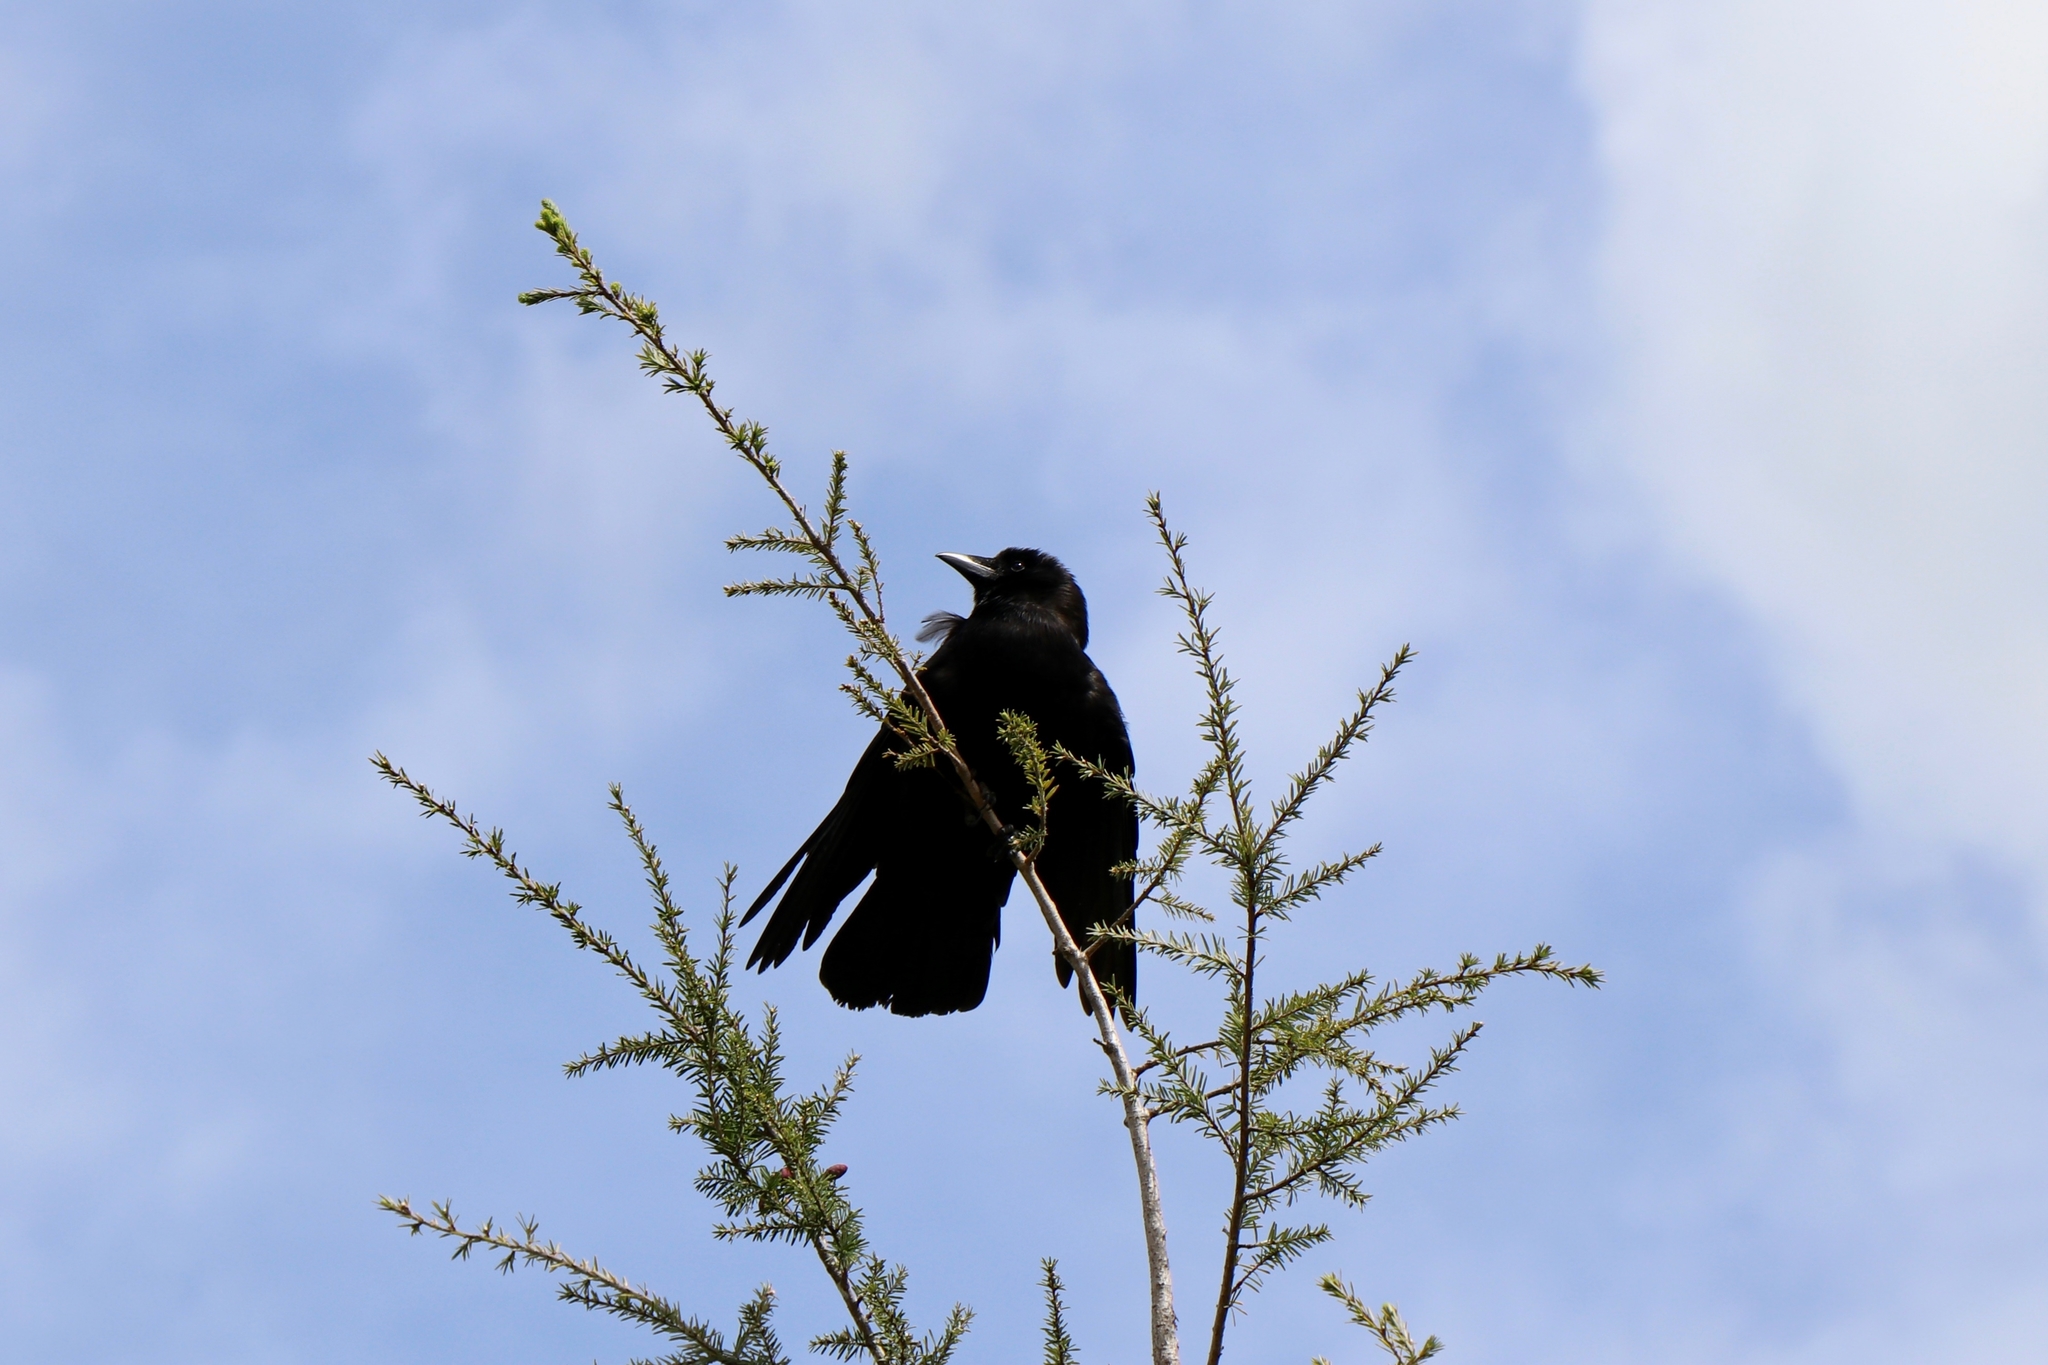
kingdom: Animalia
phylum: Chordata
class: Aves
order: Passeriformes
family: Corvidae
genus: Corvus
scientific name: Corvus brachyrhynchos
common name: American crow
